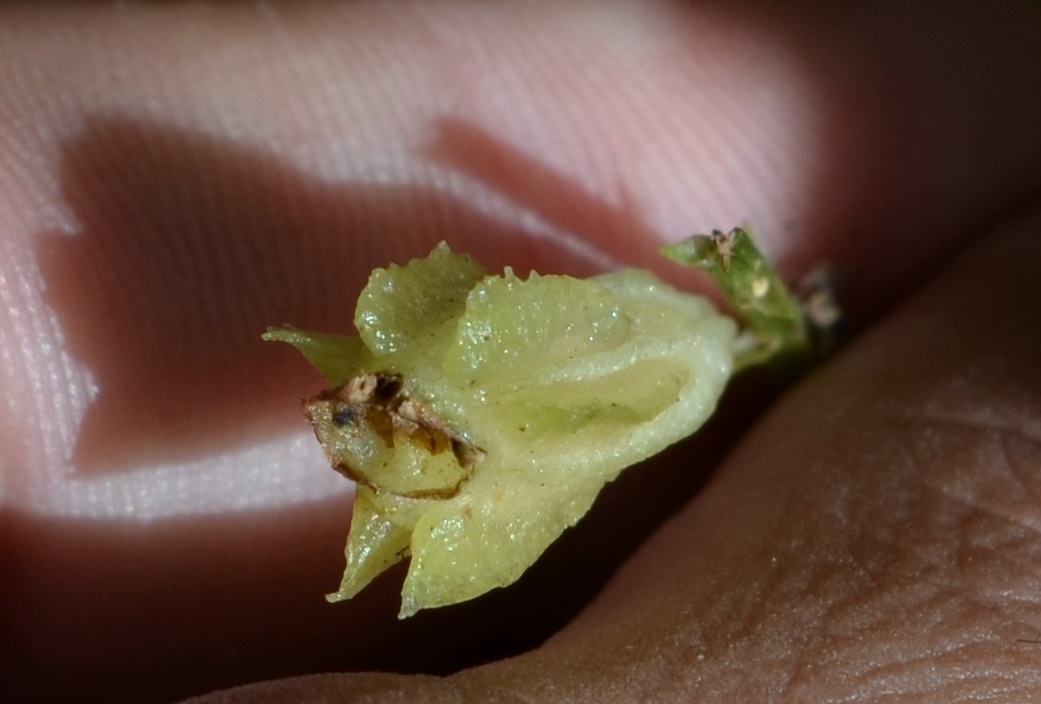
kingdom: Plantae
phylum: Tracheophyta
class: Liliopsida
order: Asparagales
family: Orchidaceae
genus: Liparis
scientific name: Liparis liliifolia
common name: Brown wide-lip orchid
